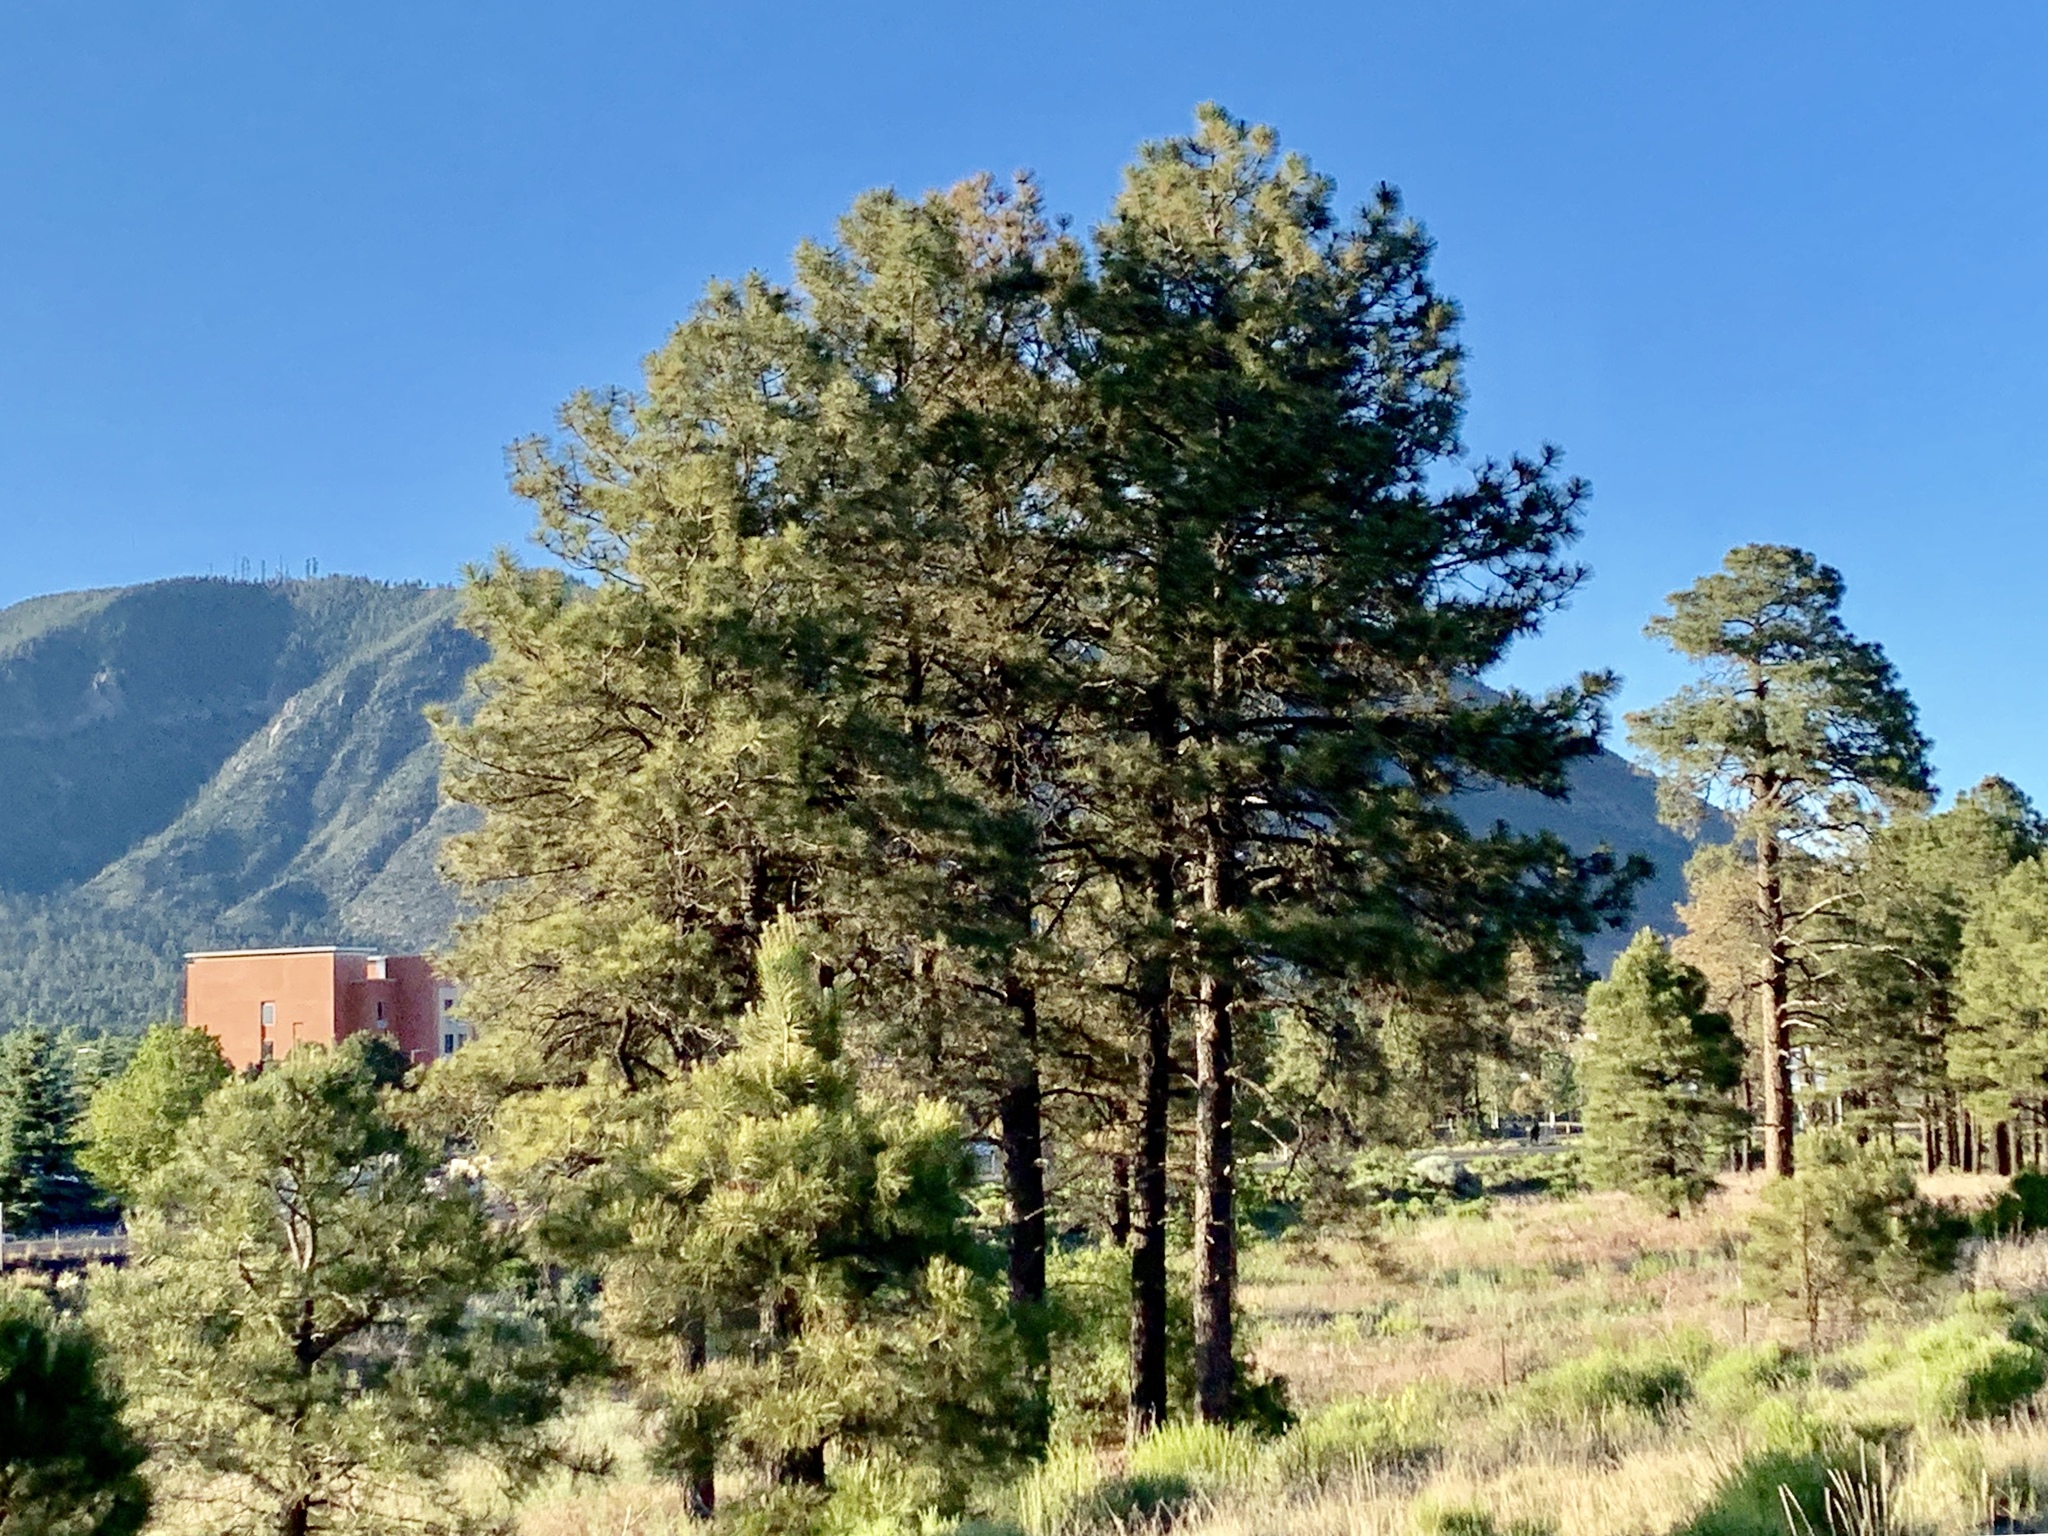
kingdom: Plantae
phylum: Tracheophyta
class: Pinopsida
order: Pinales
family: Pinaceae
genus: Pinus
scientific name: Pinus ponderosa
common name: Western yellow-pine
